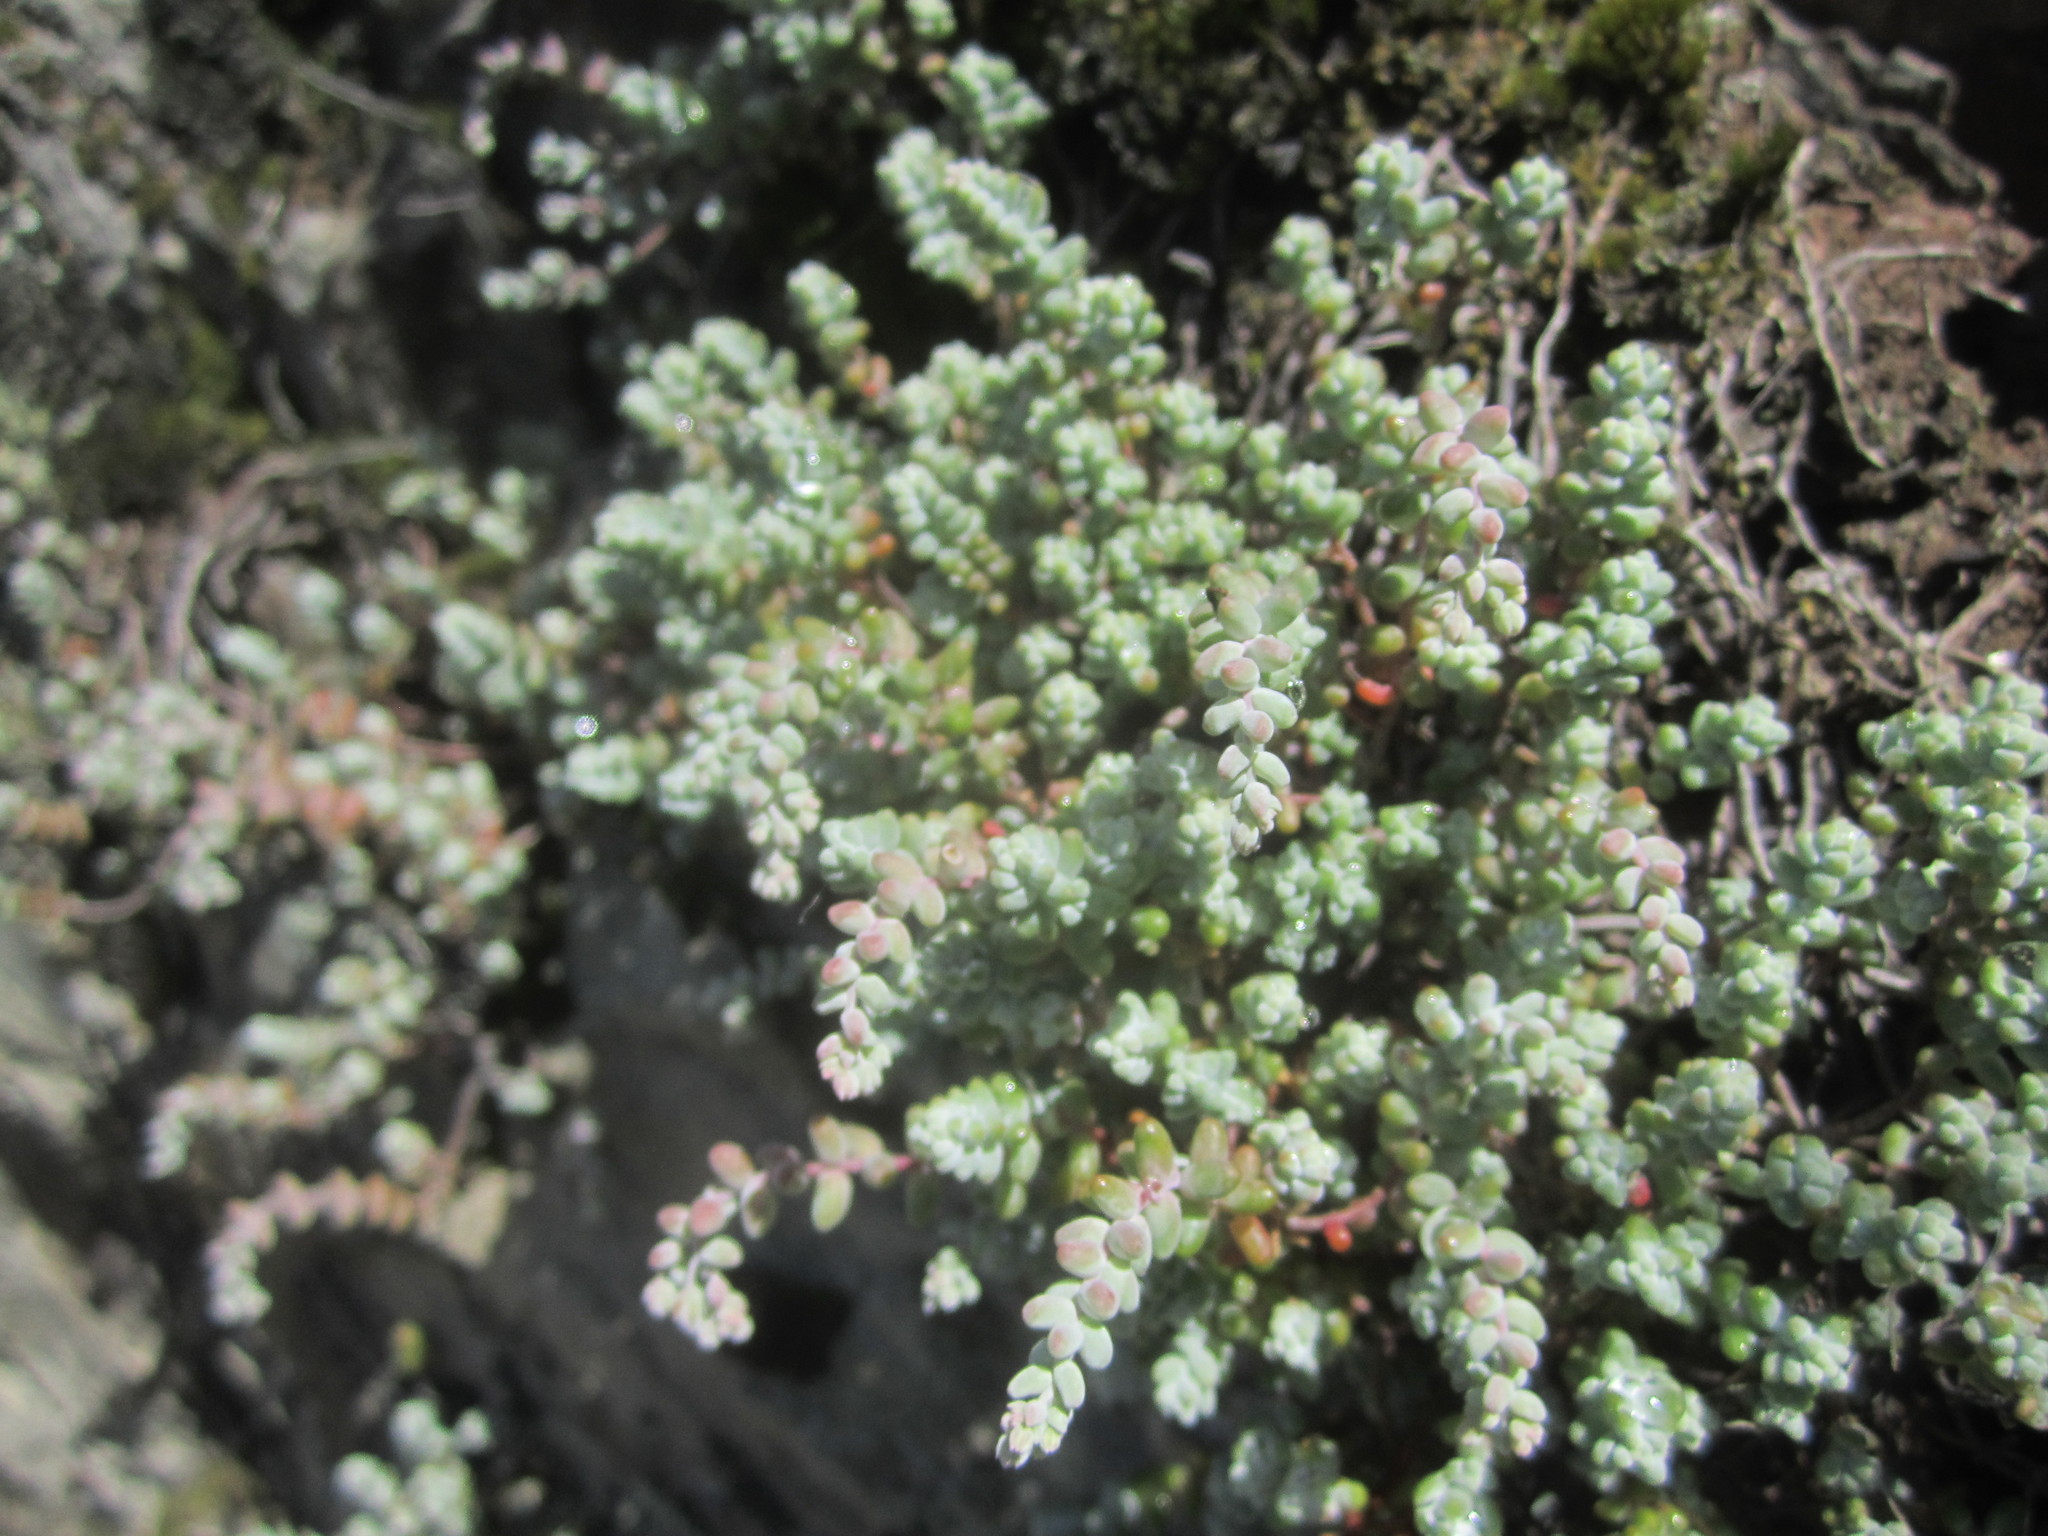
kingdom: Plantae
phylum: Tracheophyta
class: Magnoliopsida
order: Saxifragales
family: Crassulaceae
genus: Sedum
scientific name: Sedum brevifolium
